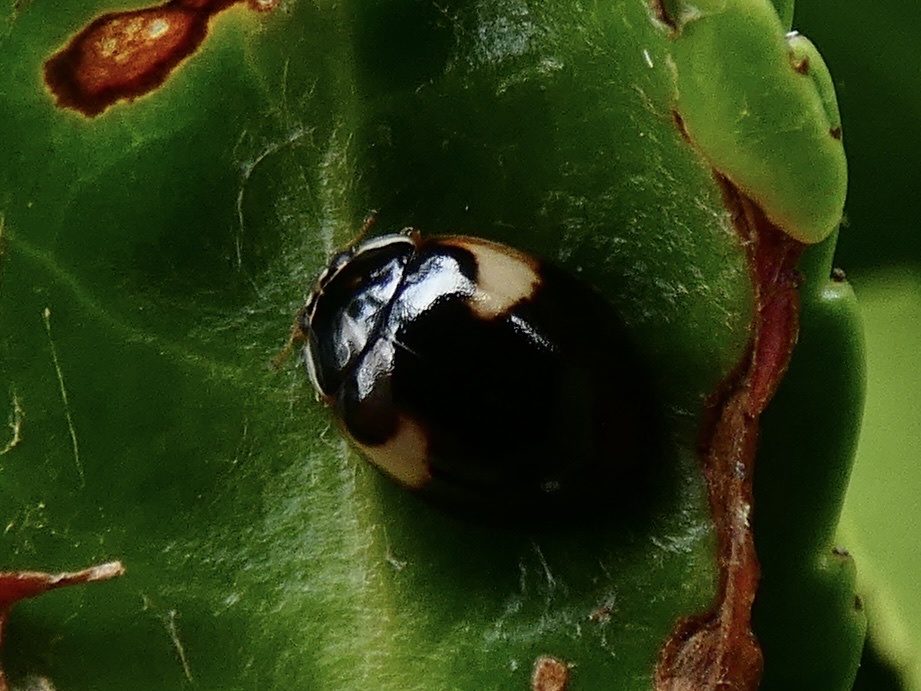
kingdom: Animalia
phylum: Arthropoda
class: Insecta
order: Coleoptera
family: Coccinellidae
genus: Adalia
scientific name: Adalia decempunctata
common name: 10-spot ladybird
